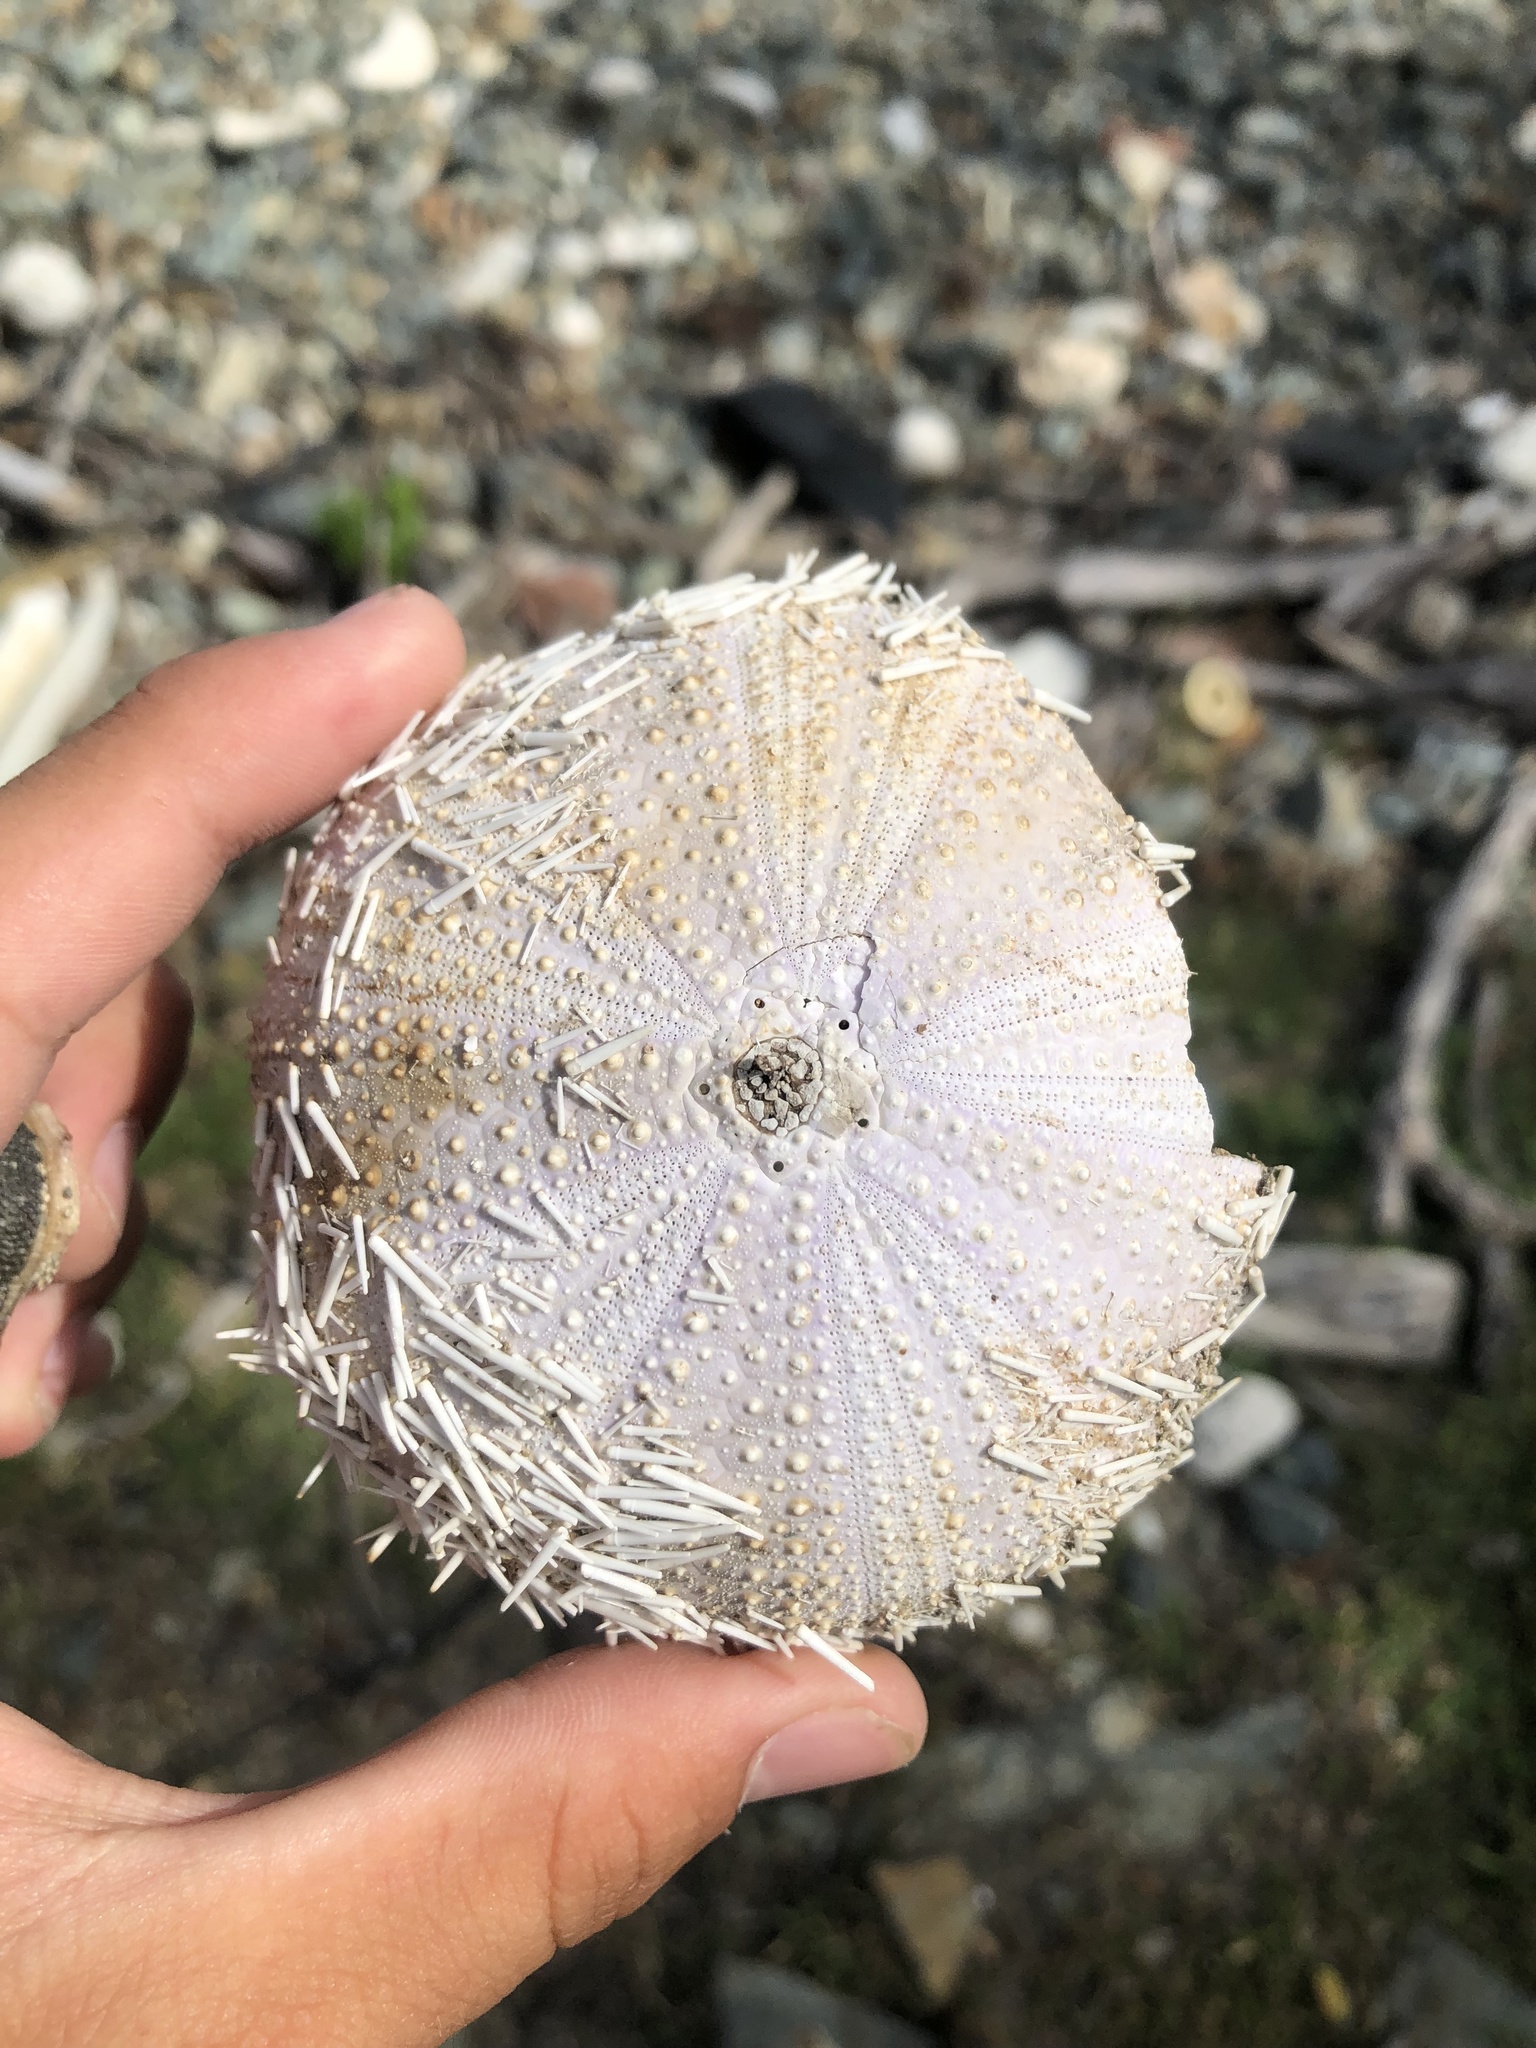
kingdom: Animalia
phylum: Echinodermata
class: Echinoidea
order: Camarodonta
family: Toxopneustidae
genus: Tripneustes
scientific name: Tripneustes ventricosus
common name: West indian sea egg
